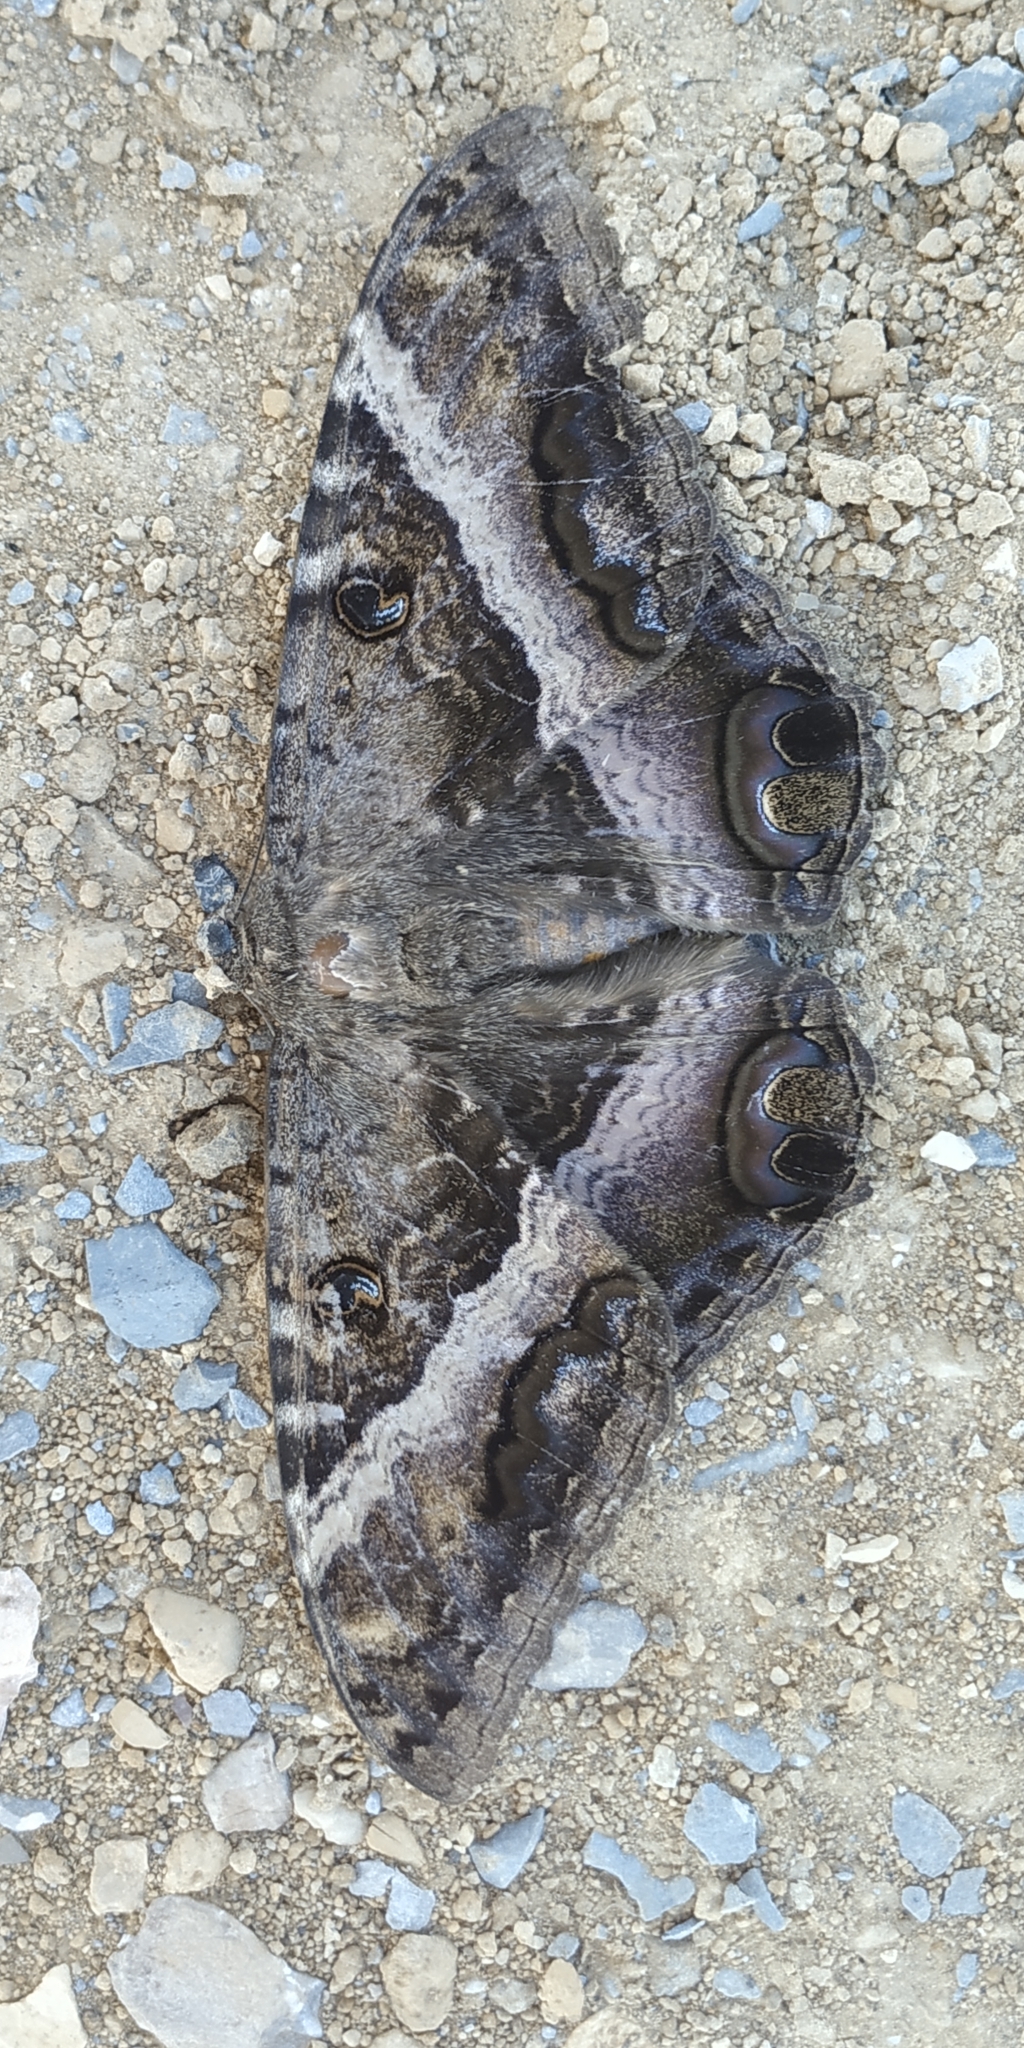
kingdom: Animalia
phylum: Arthropoda
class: Insecta
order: Lepidoptera
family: Erebidae
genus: Ascalapha
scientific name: Ascalapha odorata
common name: Black witch
